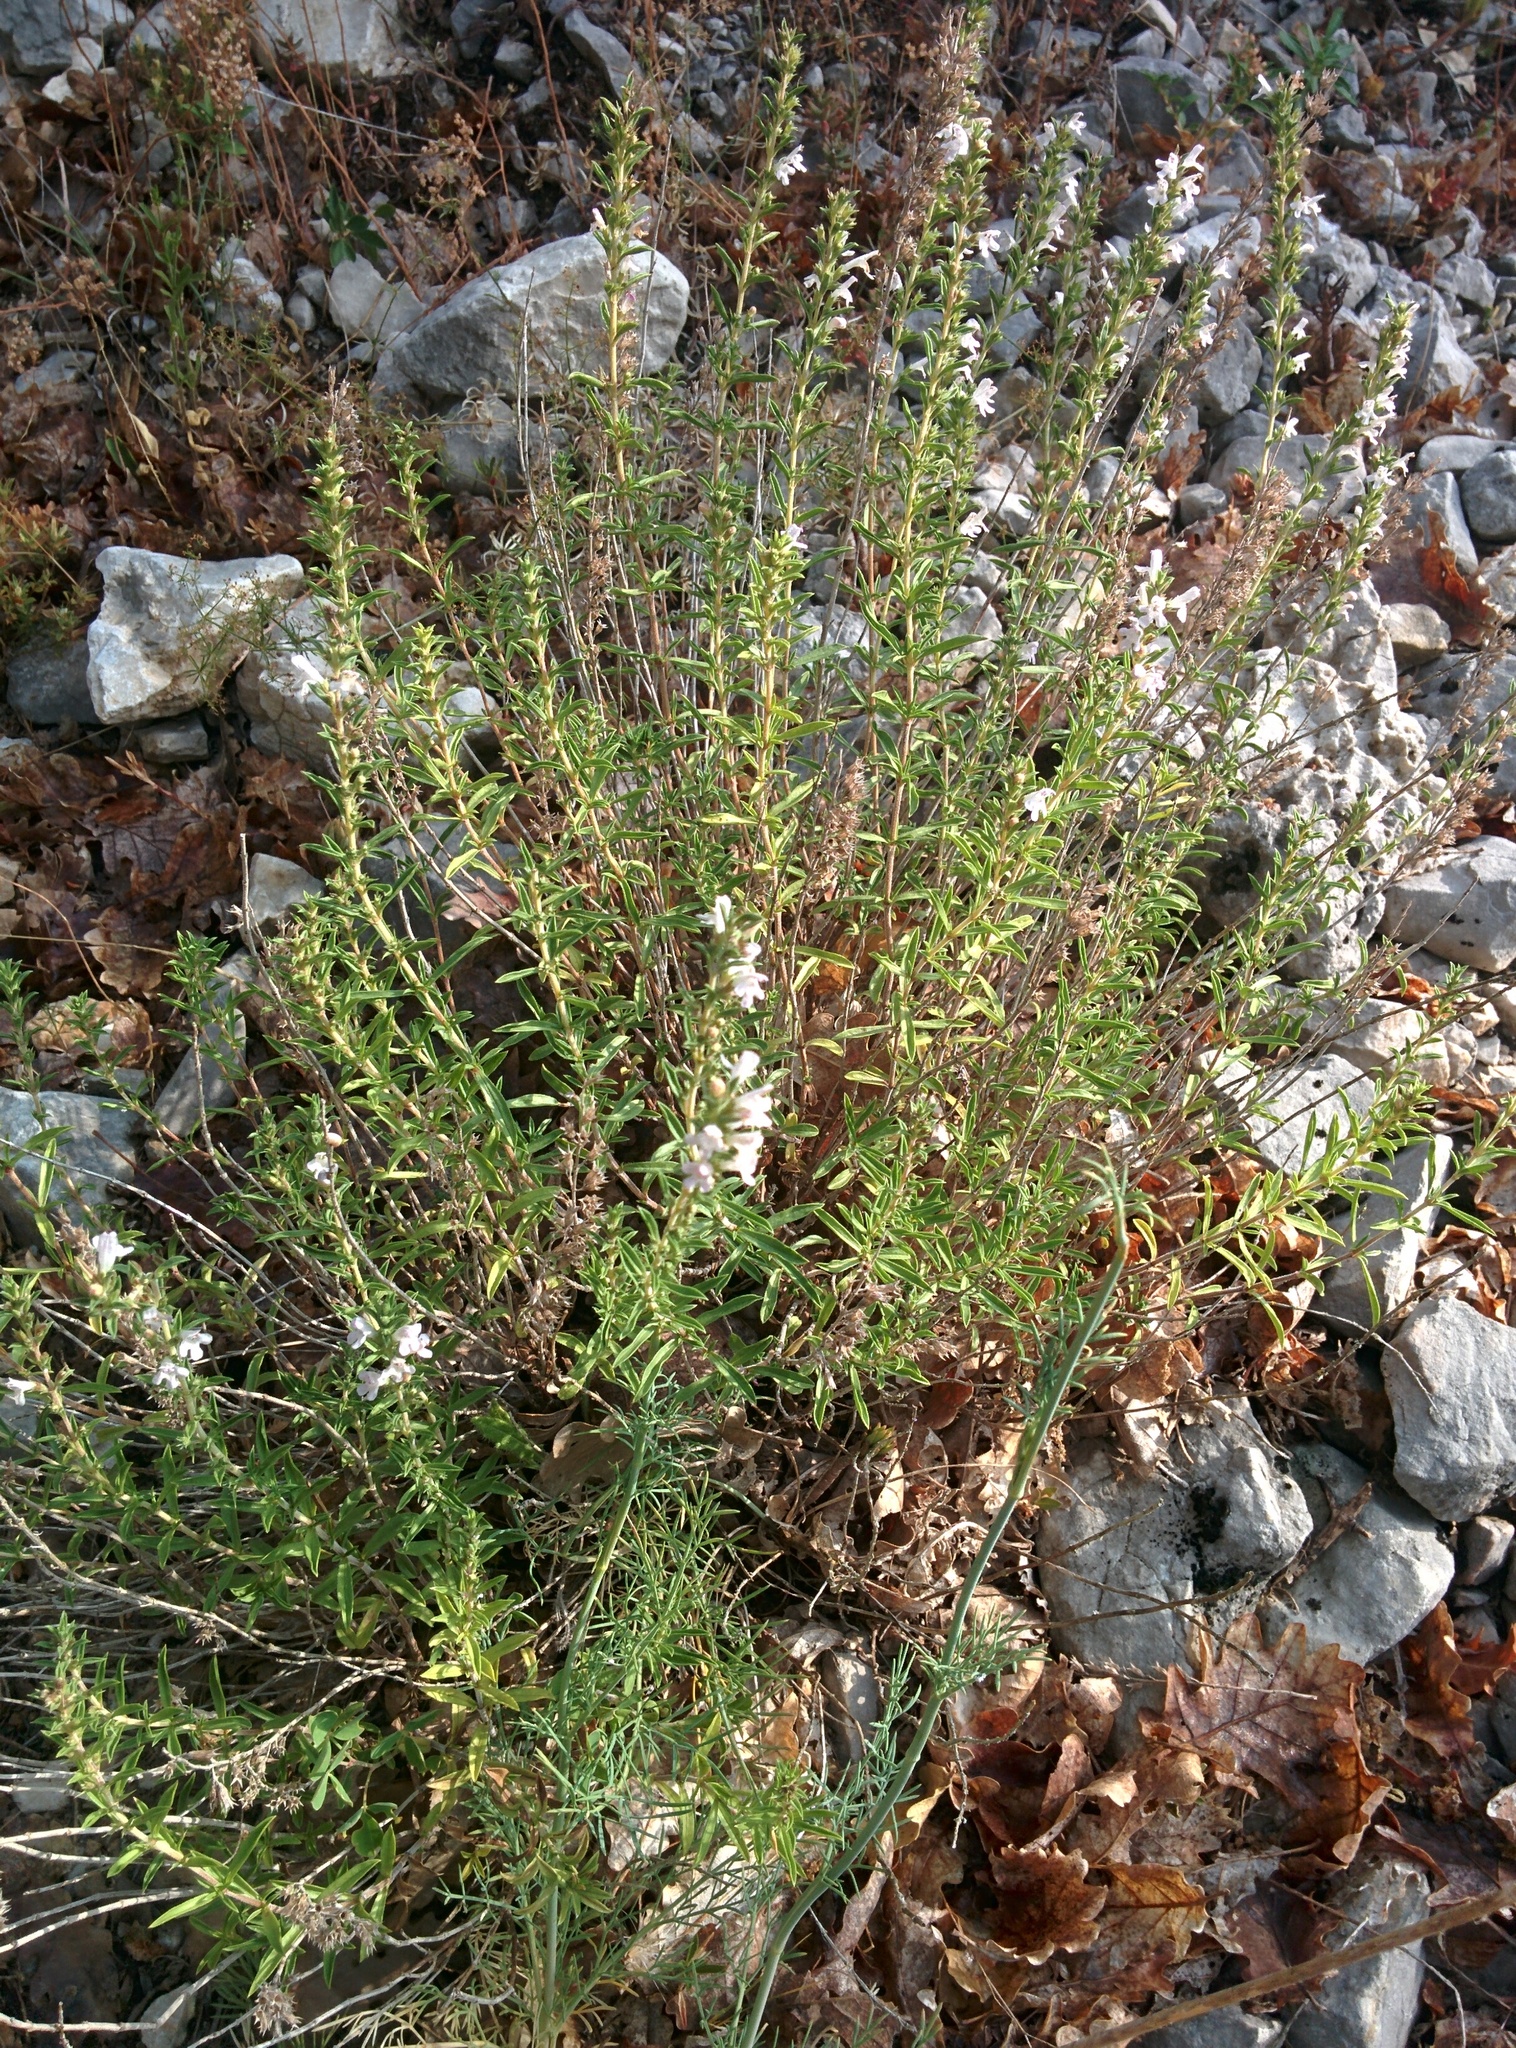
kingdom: Plantae
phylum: Tracheophyta
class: Magnoliopsida
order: Lamiales
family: Lamiaceae
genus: Satureja
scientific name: Satureja montana
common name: Winter savory
